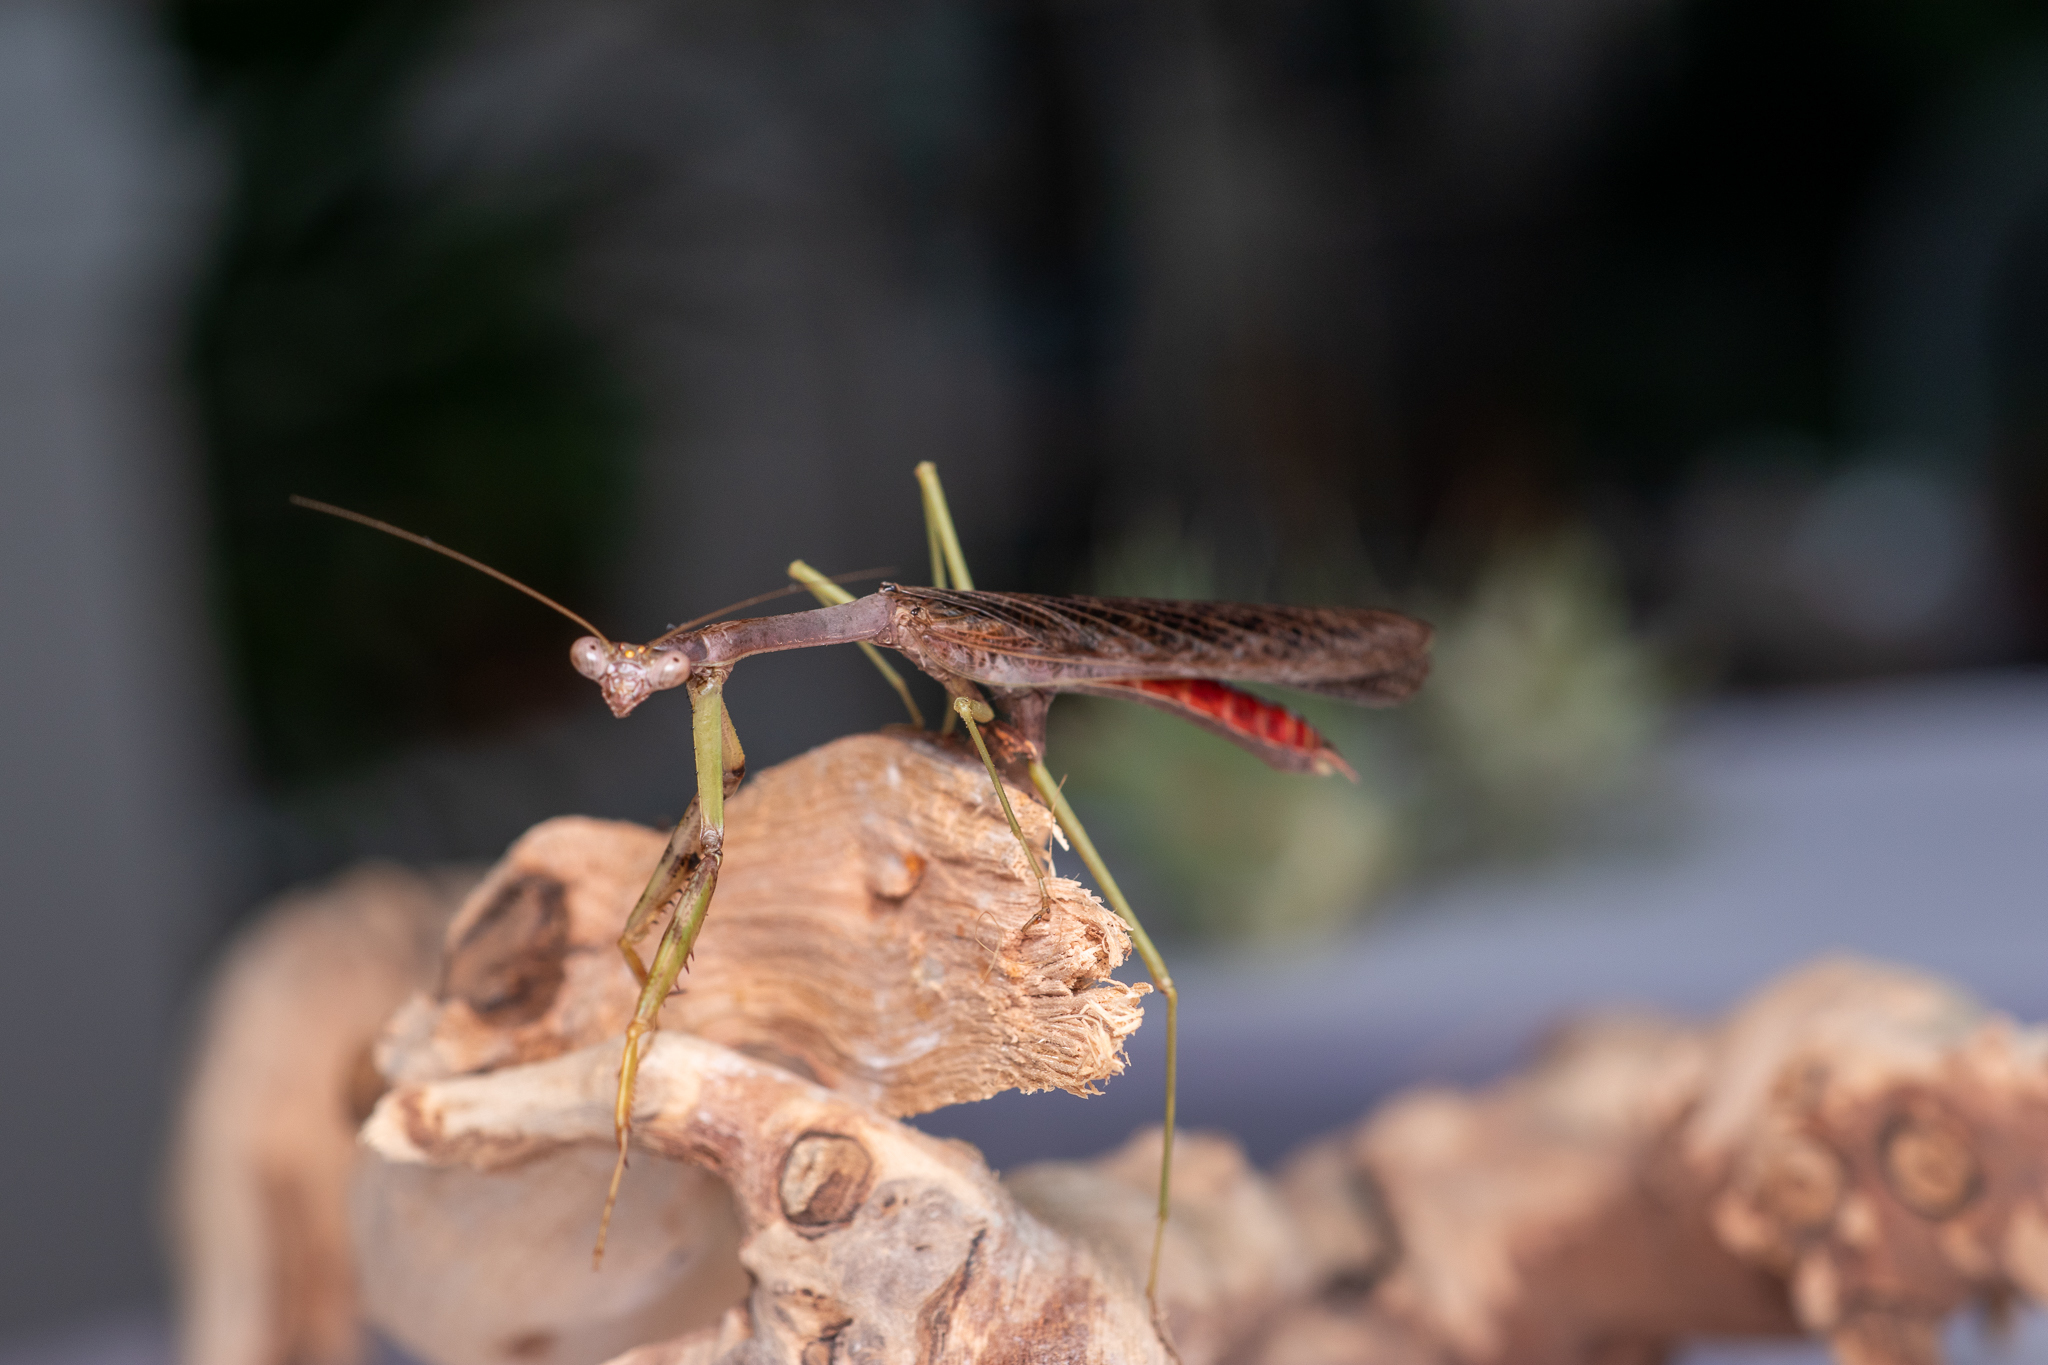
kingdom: Animalia
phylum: Arthropoda
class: Insecta
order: Mantodea
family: Mantidae
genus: Stagmomantis
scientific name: Stagmomantis carolina
